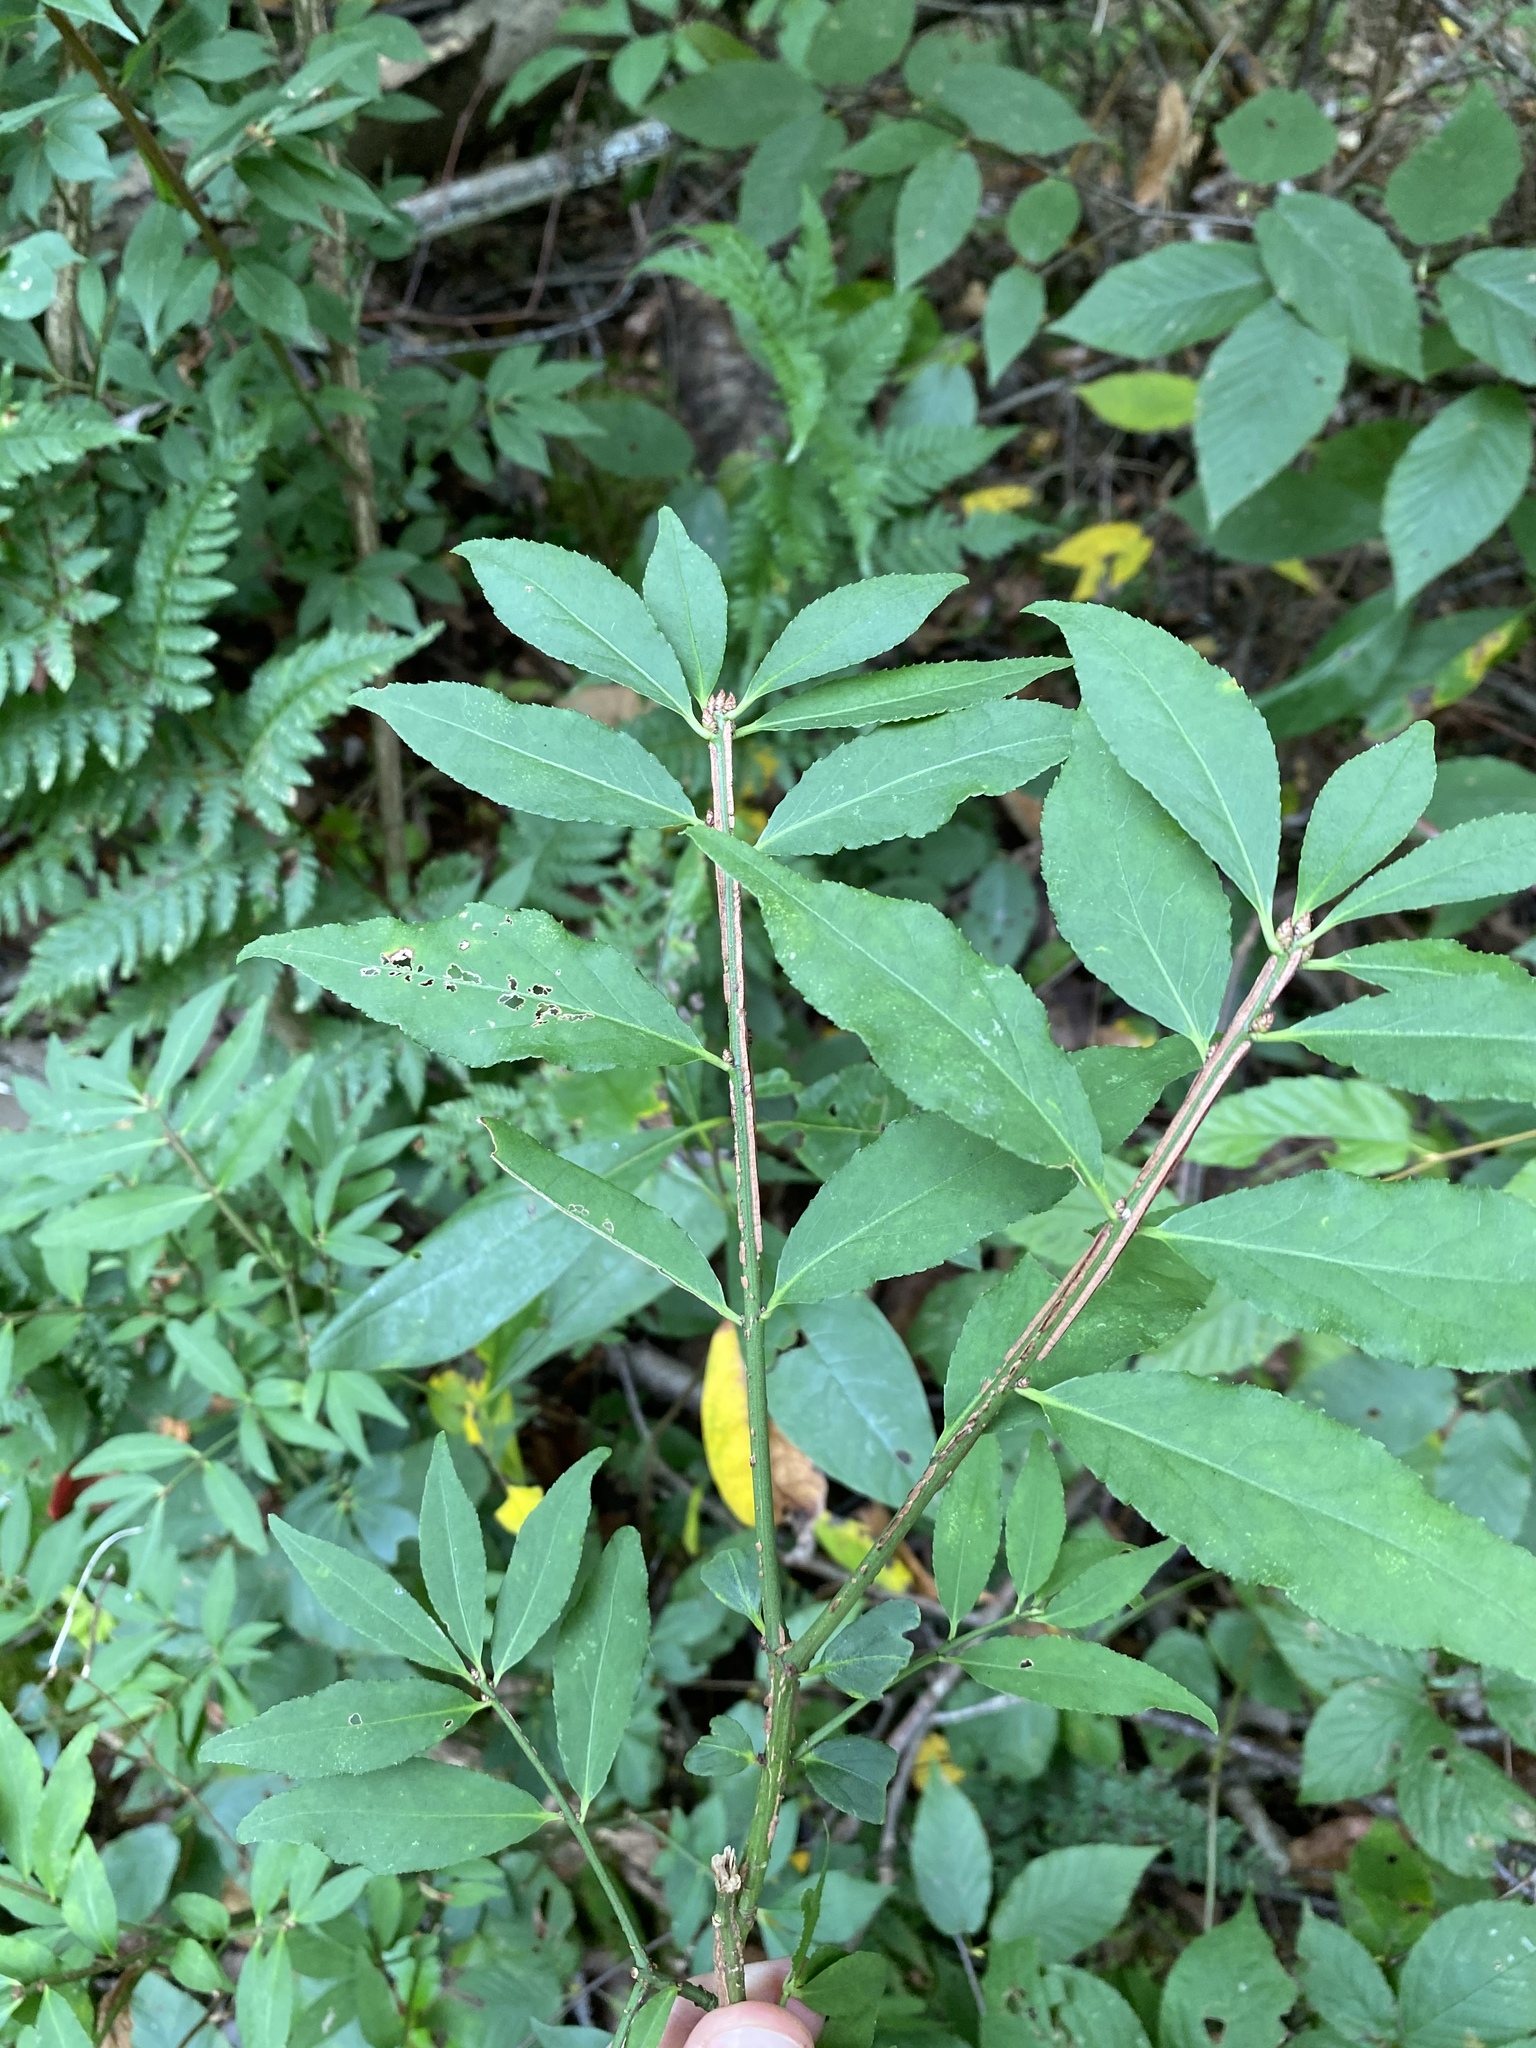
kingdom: Plantae
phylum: Tracheophyta
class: Magnoliopsida
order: Celastrales
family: Celastraceae
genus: Euonymus
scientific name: Euonymus alatus
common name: Winged euonymus
